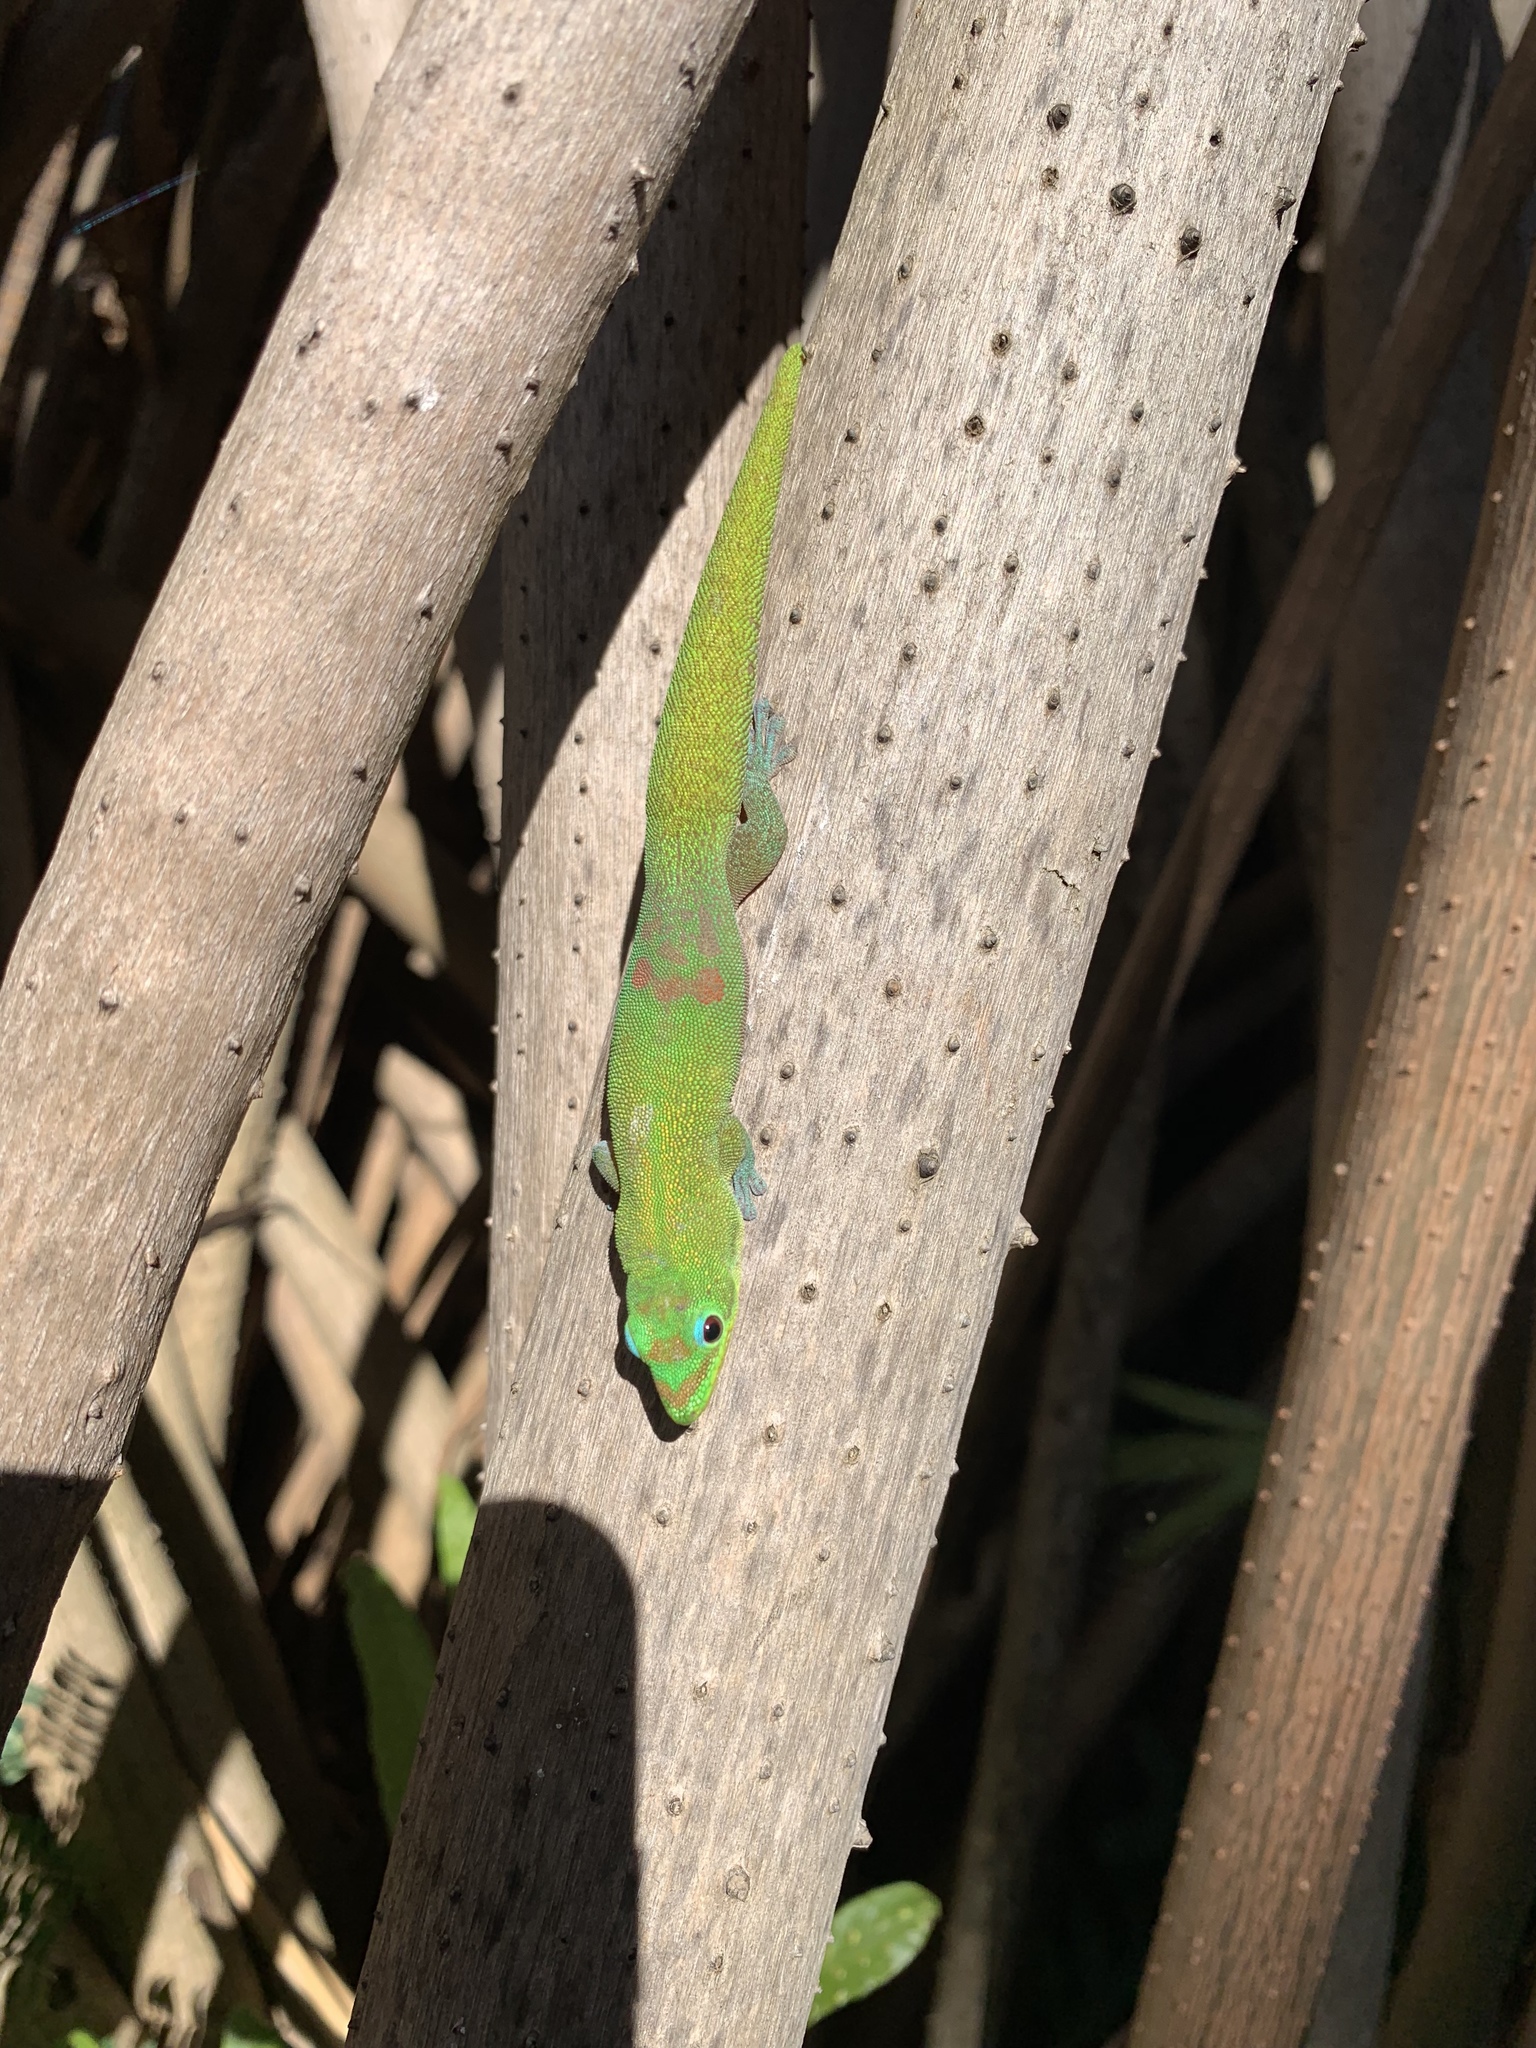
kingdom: Animalia
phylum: Chordata
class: Squamata
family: Gekkonidae
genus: Phelsuma
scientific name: Phelsuma laticauda
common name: Gold dust day gecko
